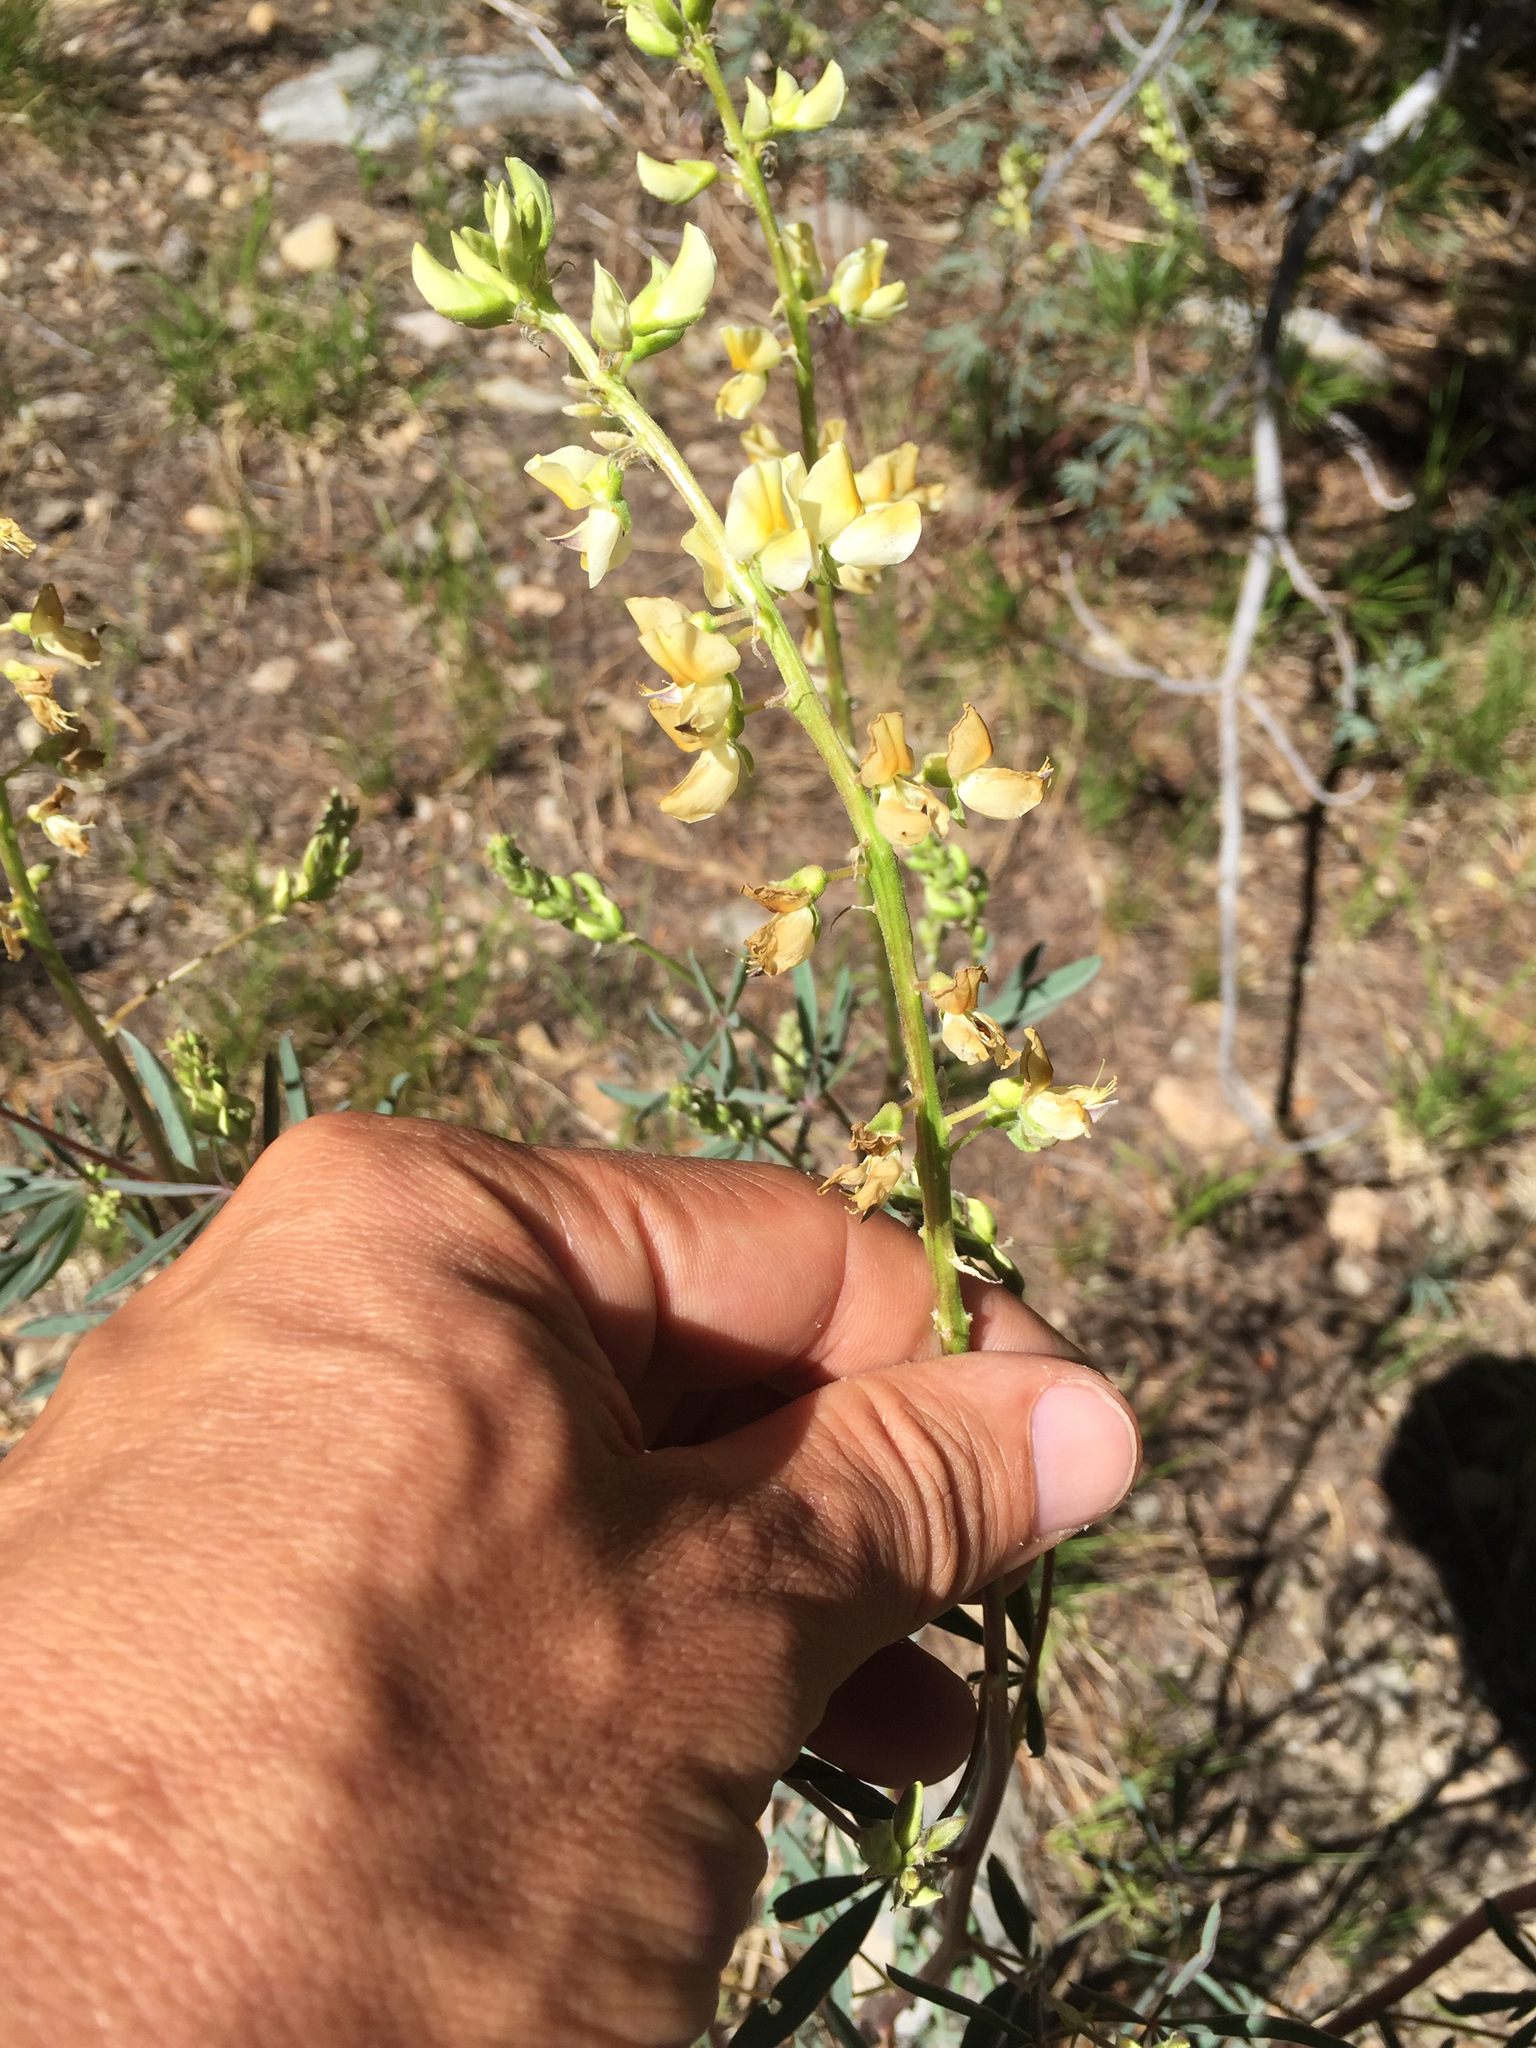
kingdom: Plantae
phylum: Tracheophyta
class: Magnoliopsida
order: Fabales
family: Fabaceae
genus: Lupinus
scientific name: Lupinus angustiflorus
